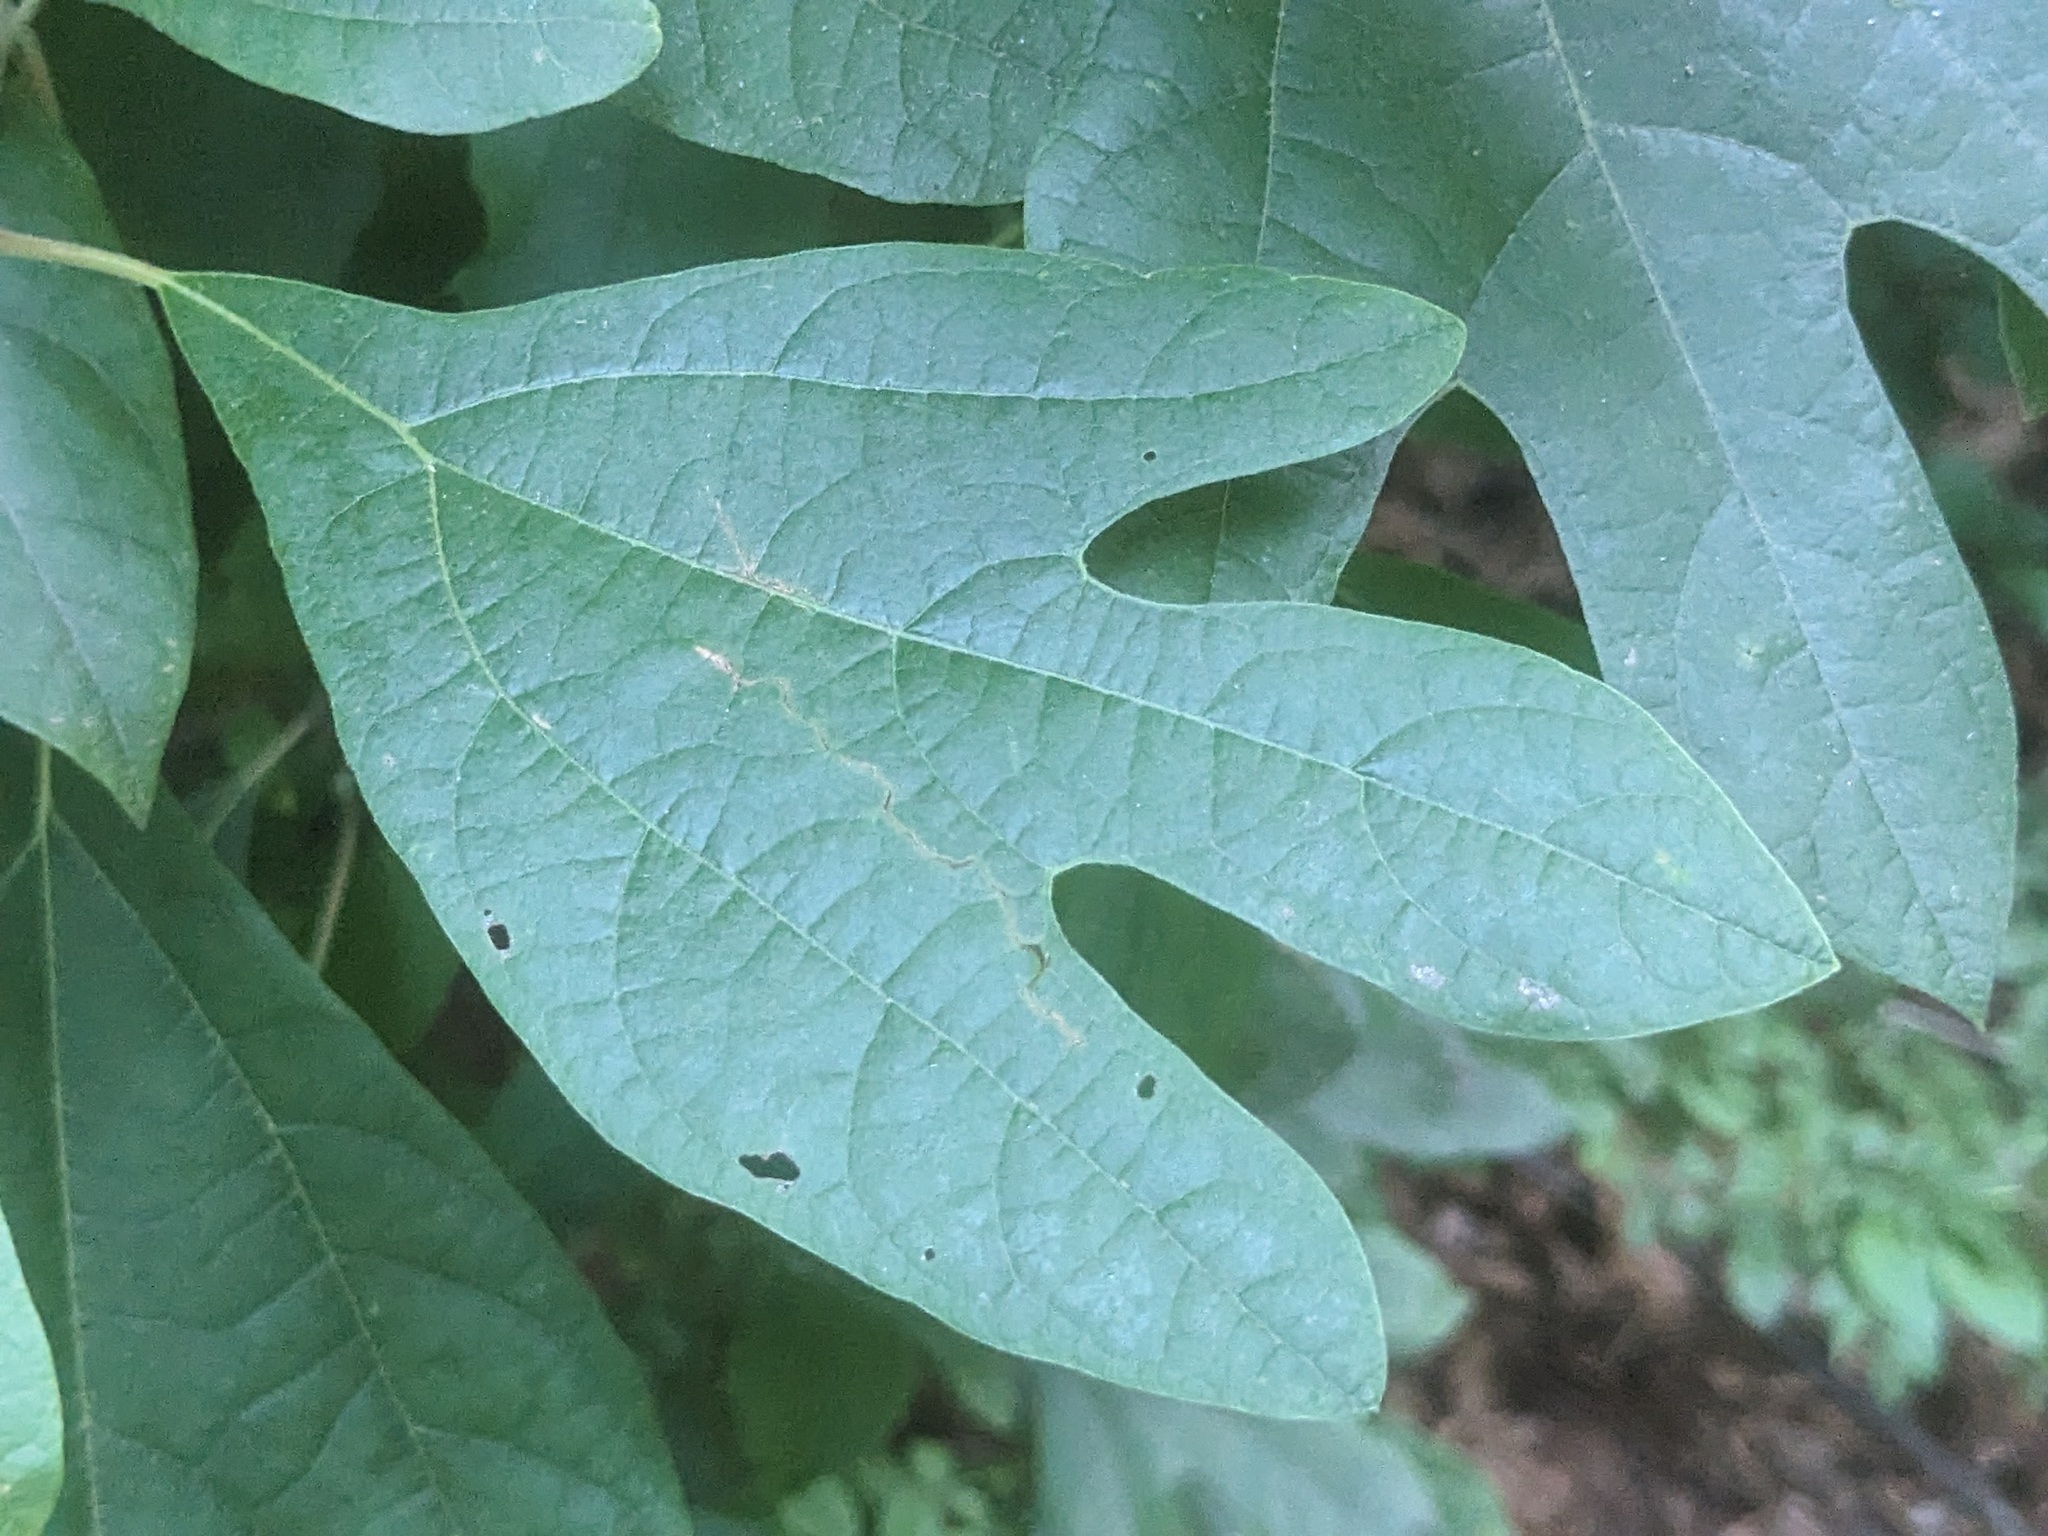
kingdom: Plantae
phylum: Tracheophyta
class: Magnoliopsida
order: Laurales
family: Lauraceae
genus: Sassafras
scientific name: Sassafras albidum
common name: Sassafras
